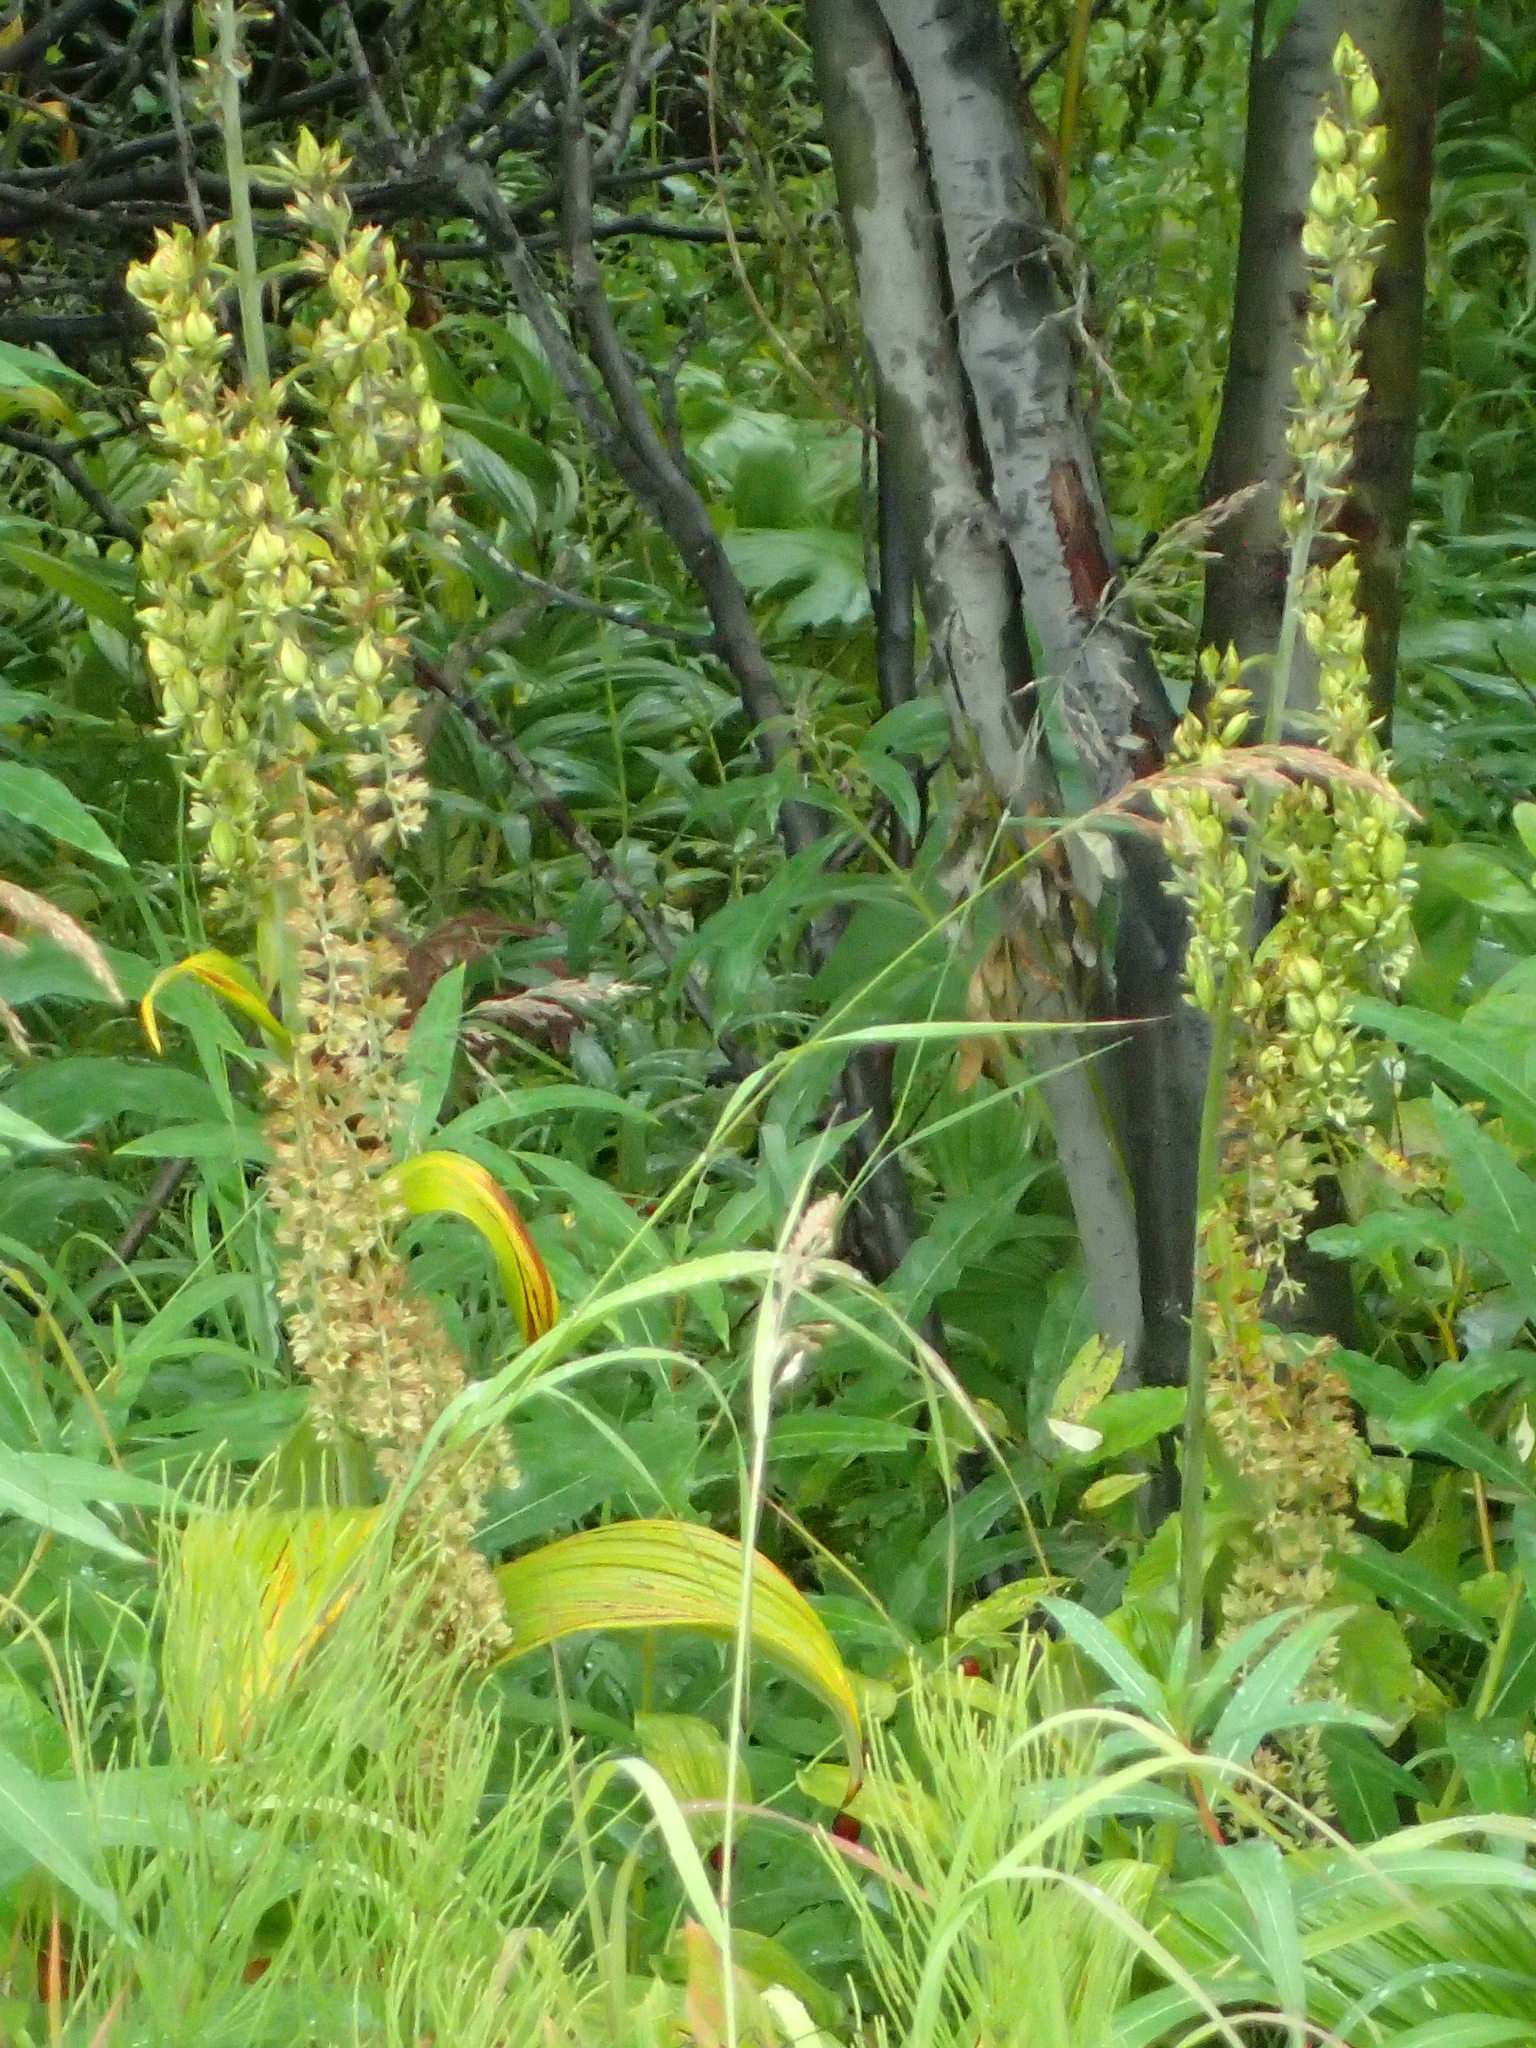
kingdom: Plantae
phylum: Tracheophyta
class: Liliopsida
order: Liliales
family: Melanthiaceae
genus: Veratrum
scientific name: Veratrum viride
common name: American false hellebore
